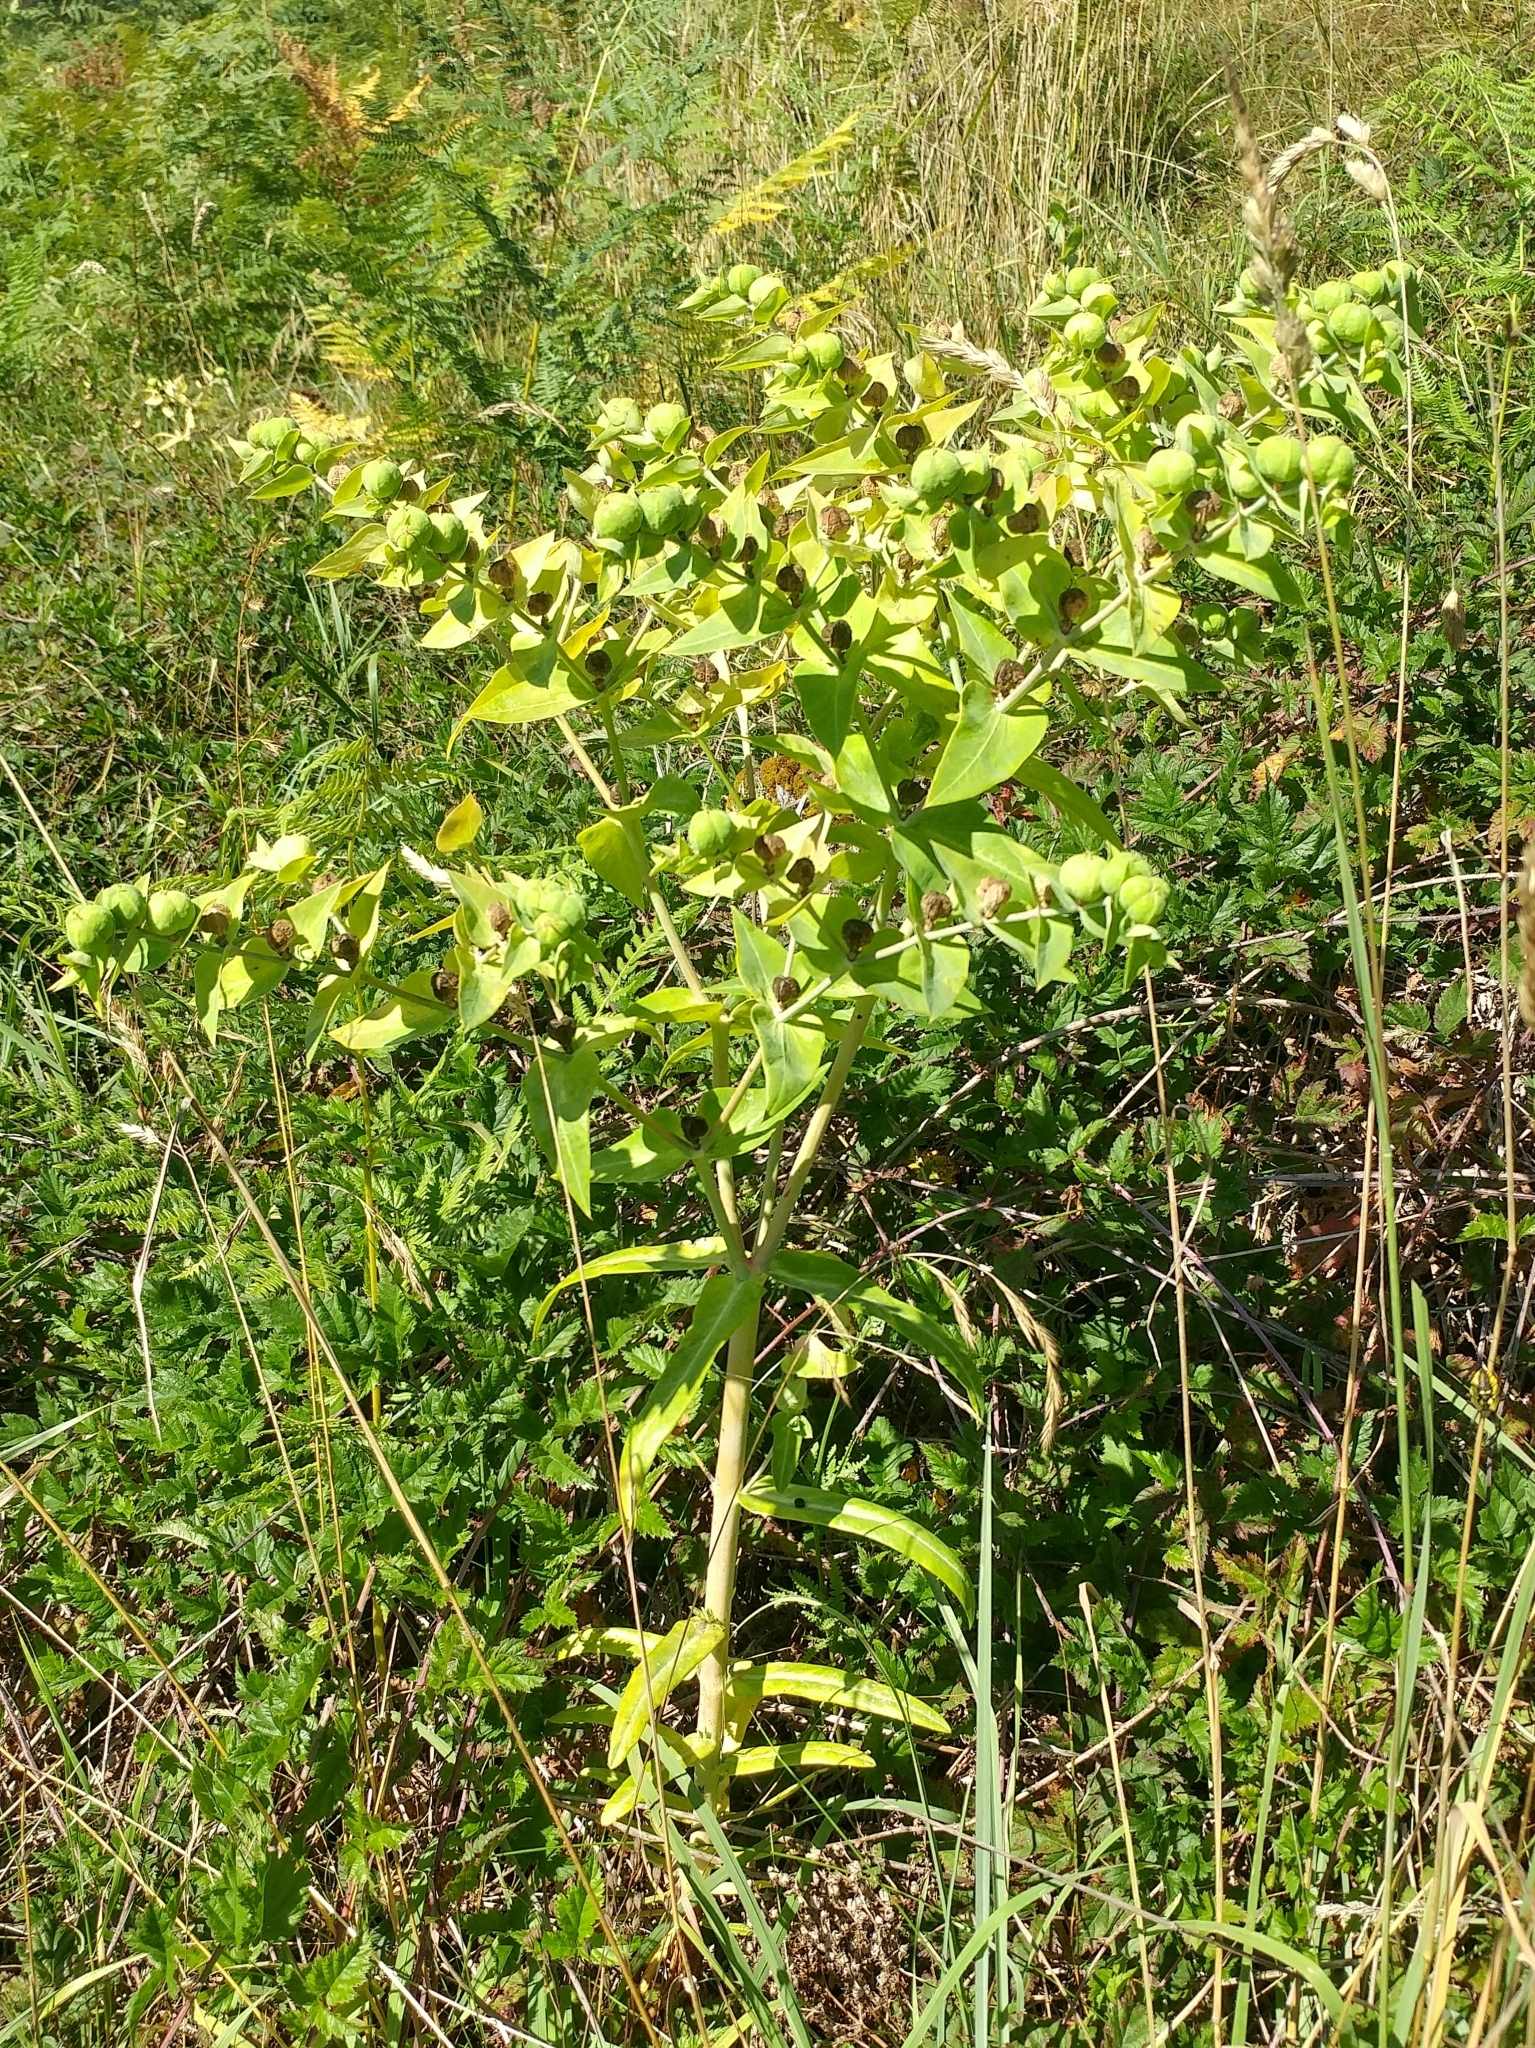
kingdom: Plantae
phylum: Tracheophyta
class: Magnoliopsida
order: Malpighiales
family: Euphorbiaceae
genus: Euphorbia
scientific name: Euphorbia lathyris
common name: Caper spurge
